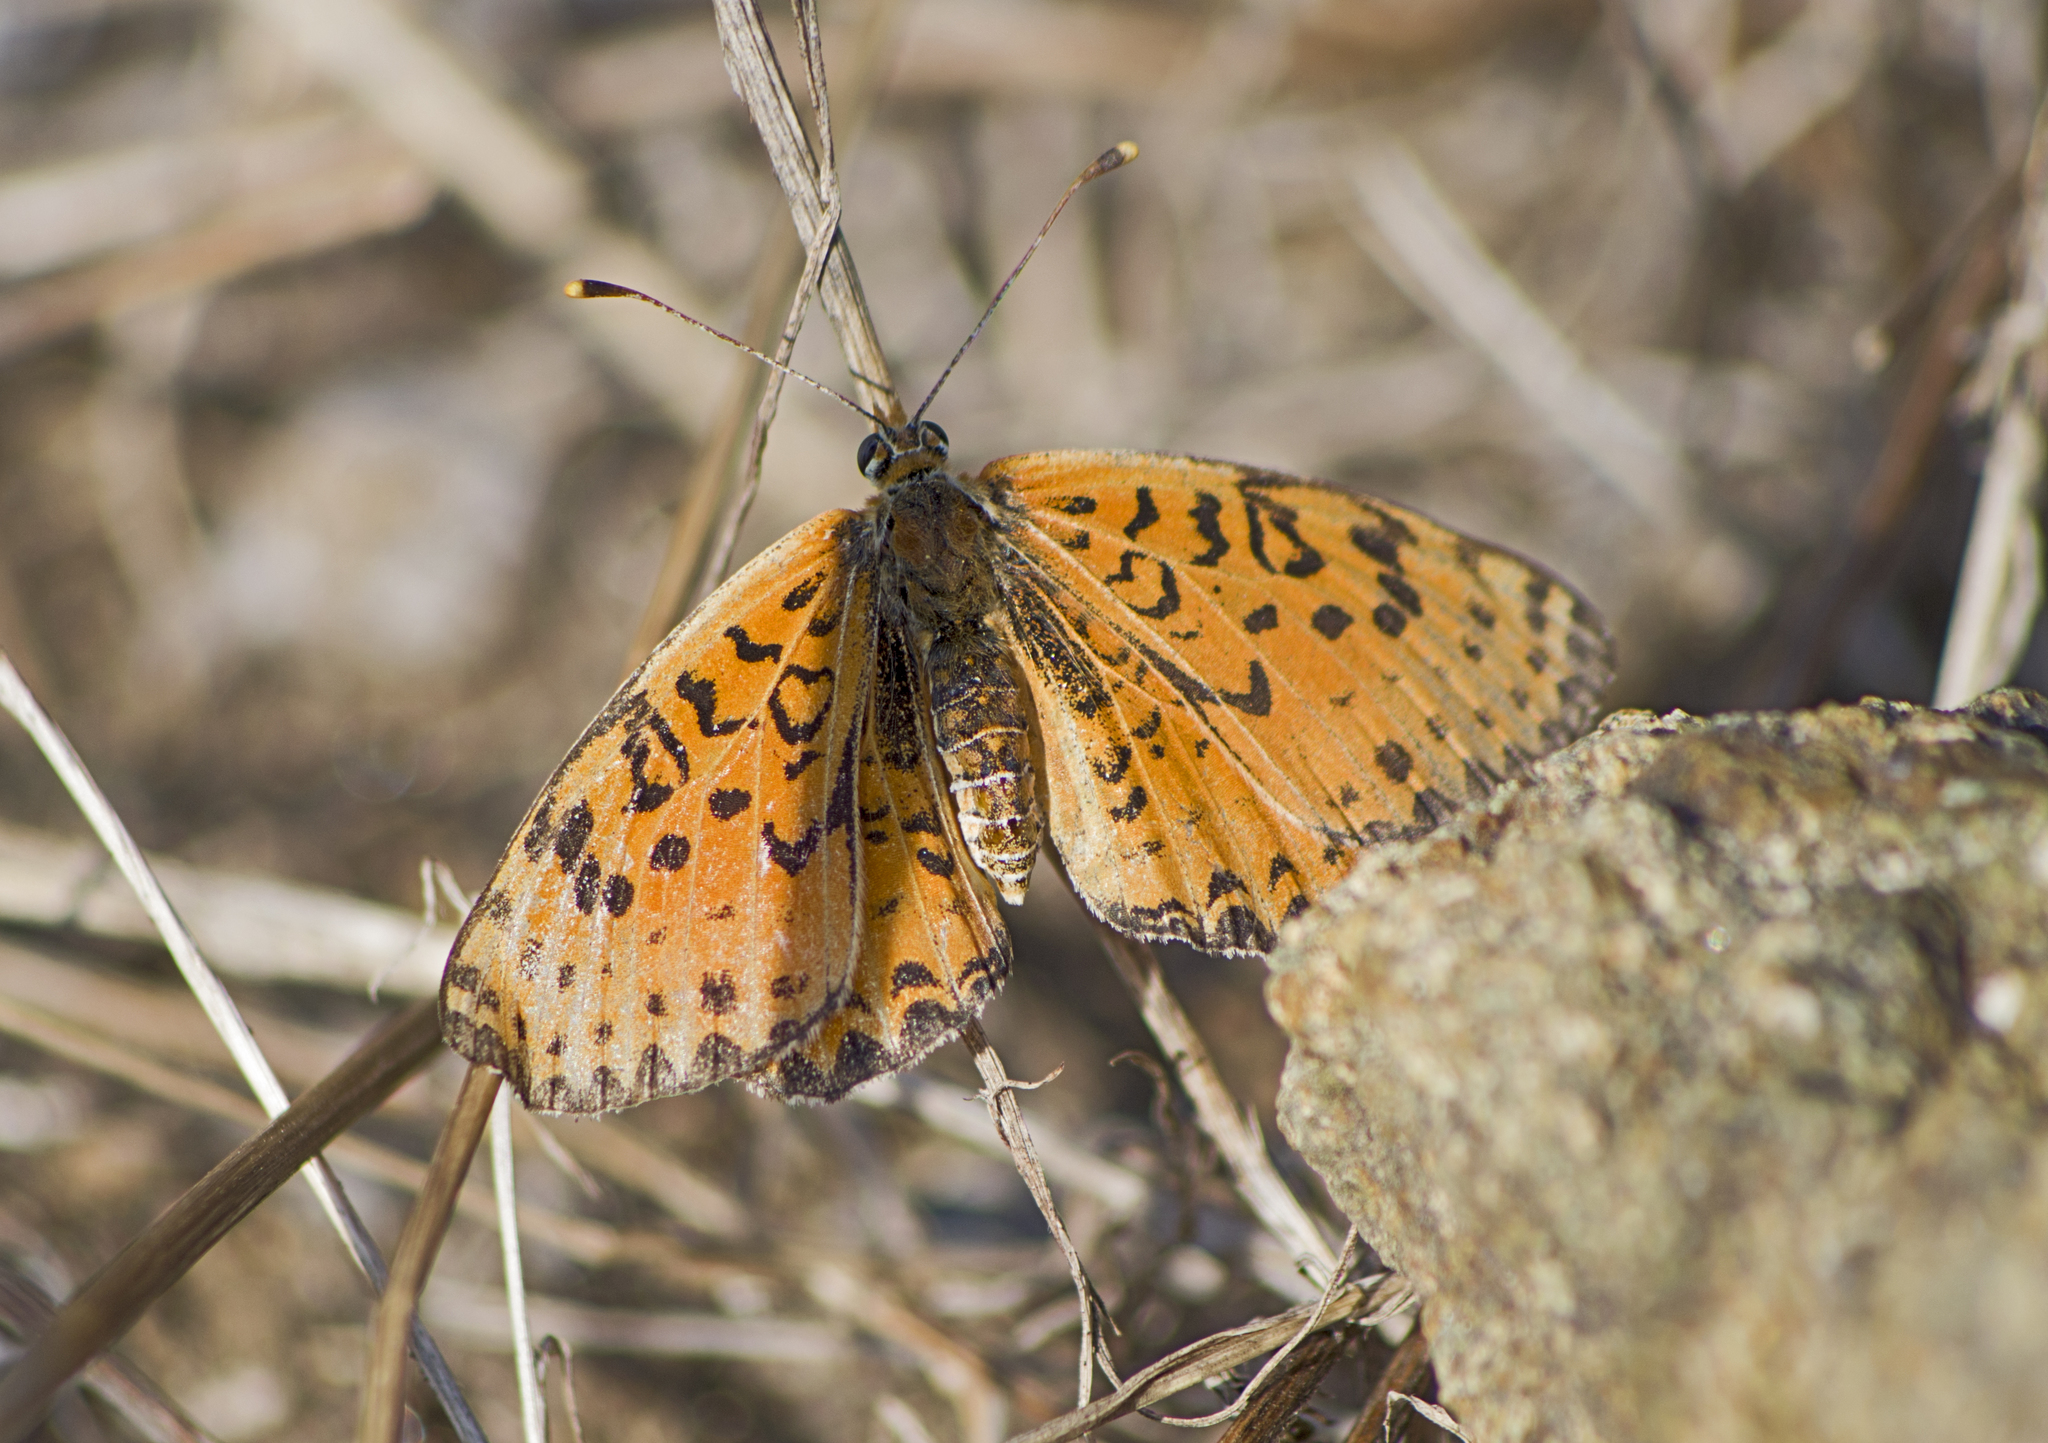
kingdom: Animalia
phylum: Arthropoda
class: Insecta
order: Lepidoptera
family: Nymphalidae
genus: Melitaea
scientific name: Melitaea didyma
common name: Spotted fritillary
